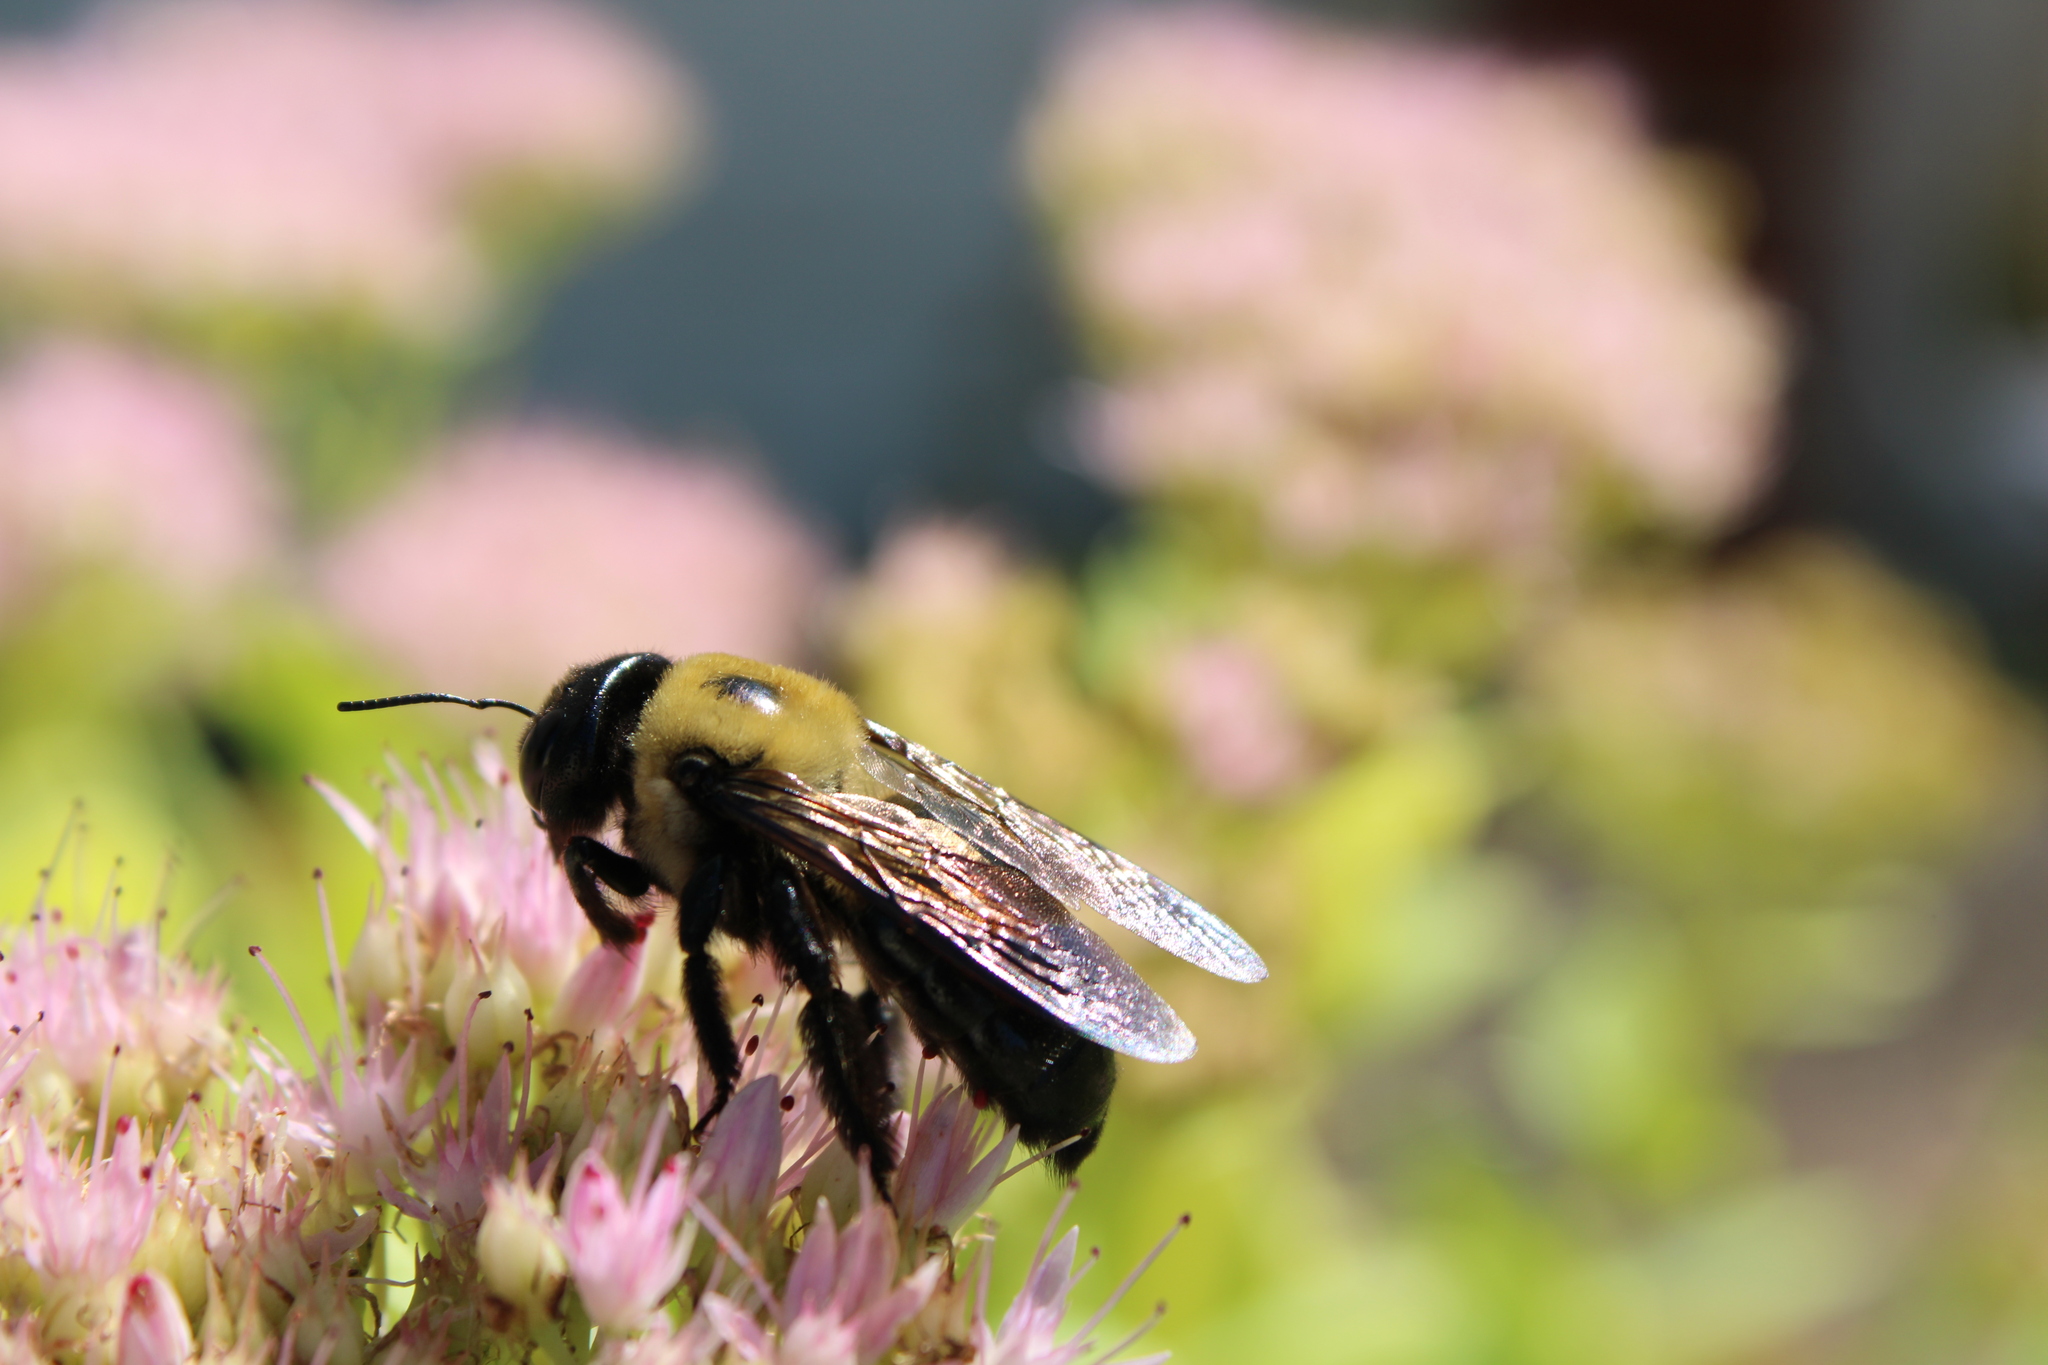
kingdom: Animalia
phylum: Arthropoda
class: Insecta
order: Hymenoptera
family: Apidae
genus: Xylocopa
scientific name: Xylocopa virginica
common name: Carpenter bee
